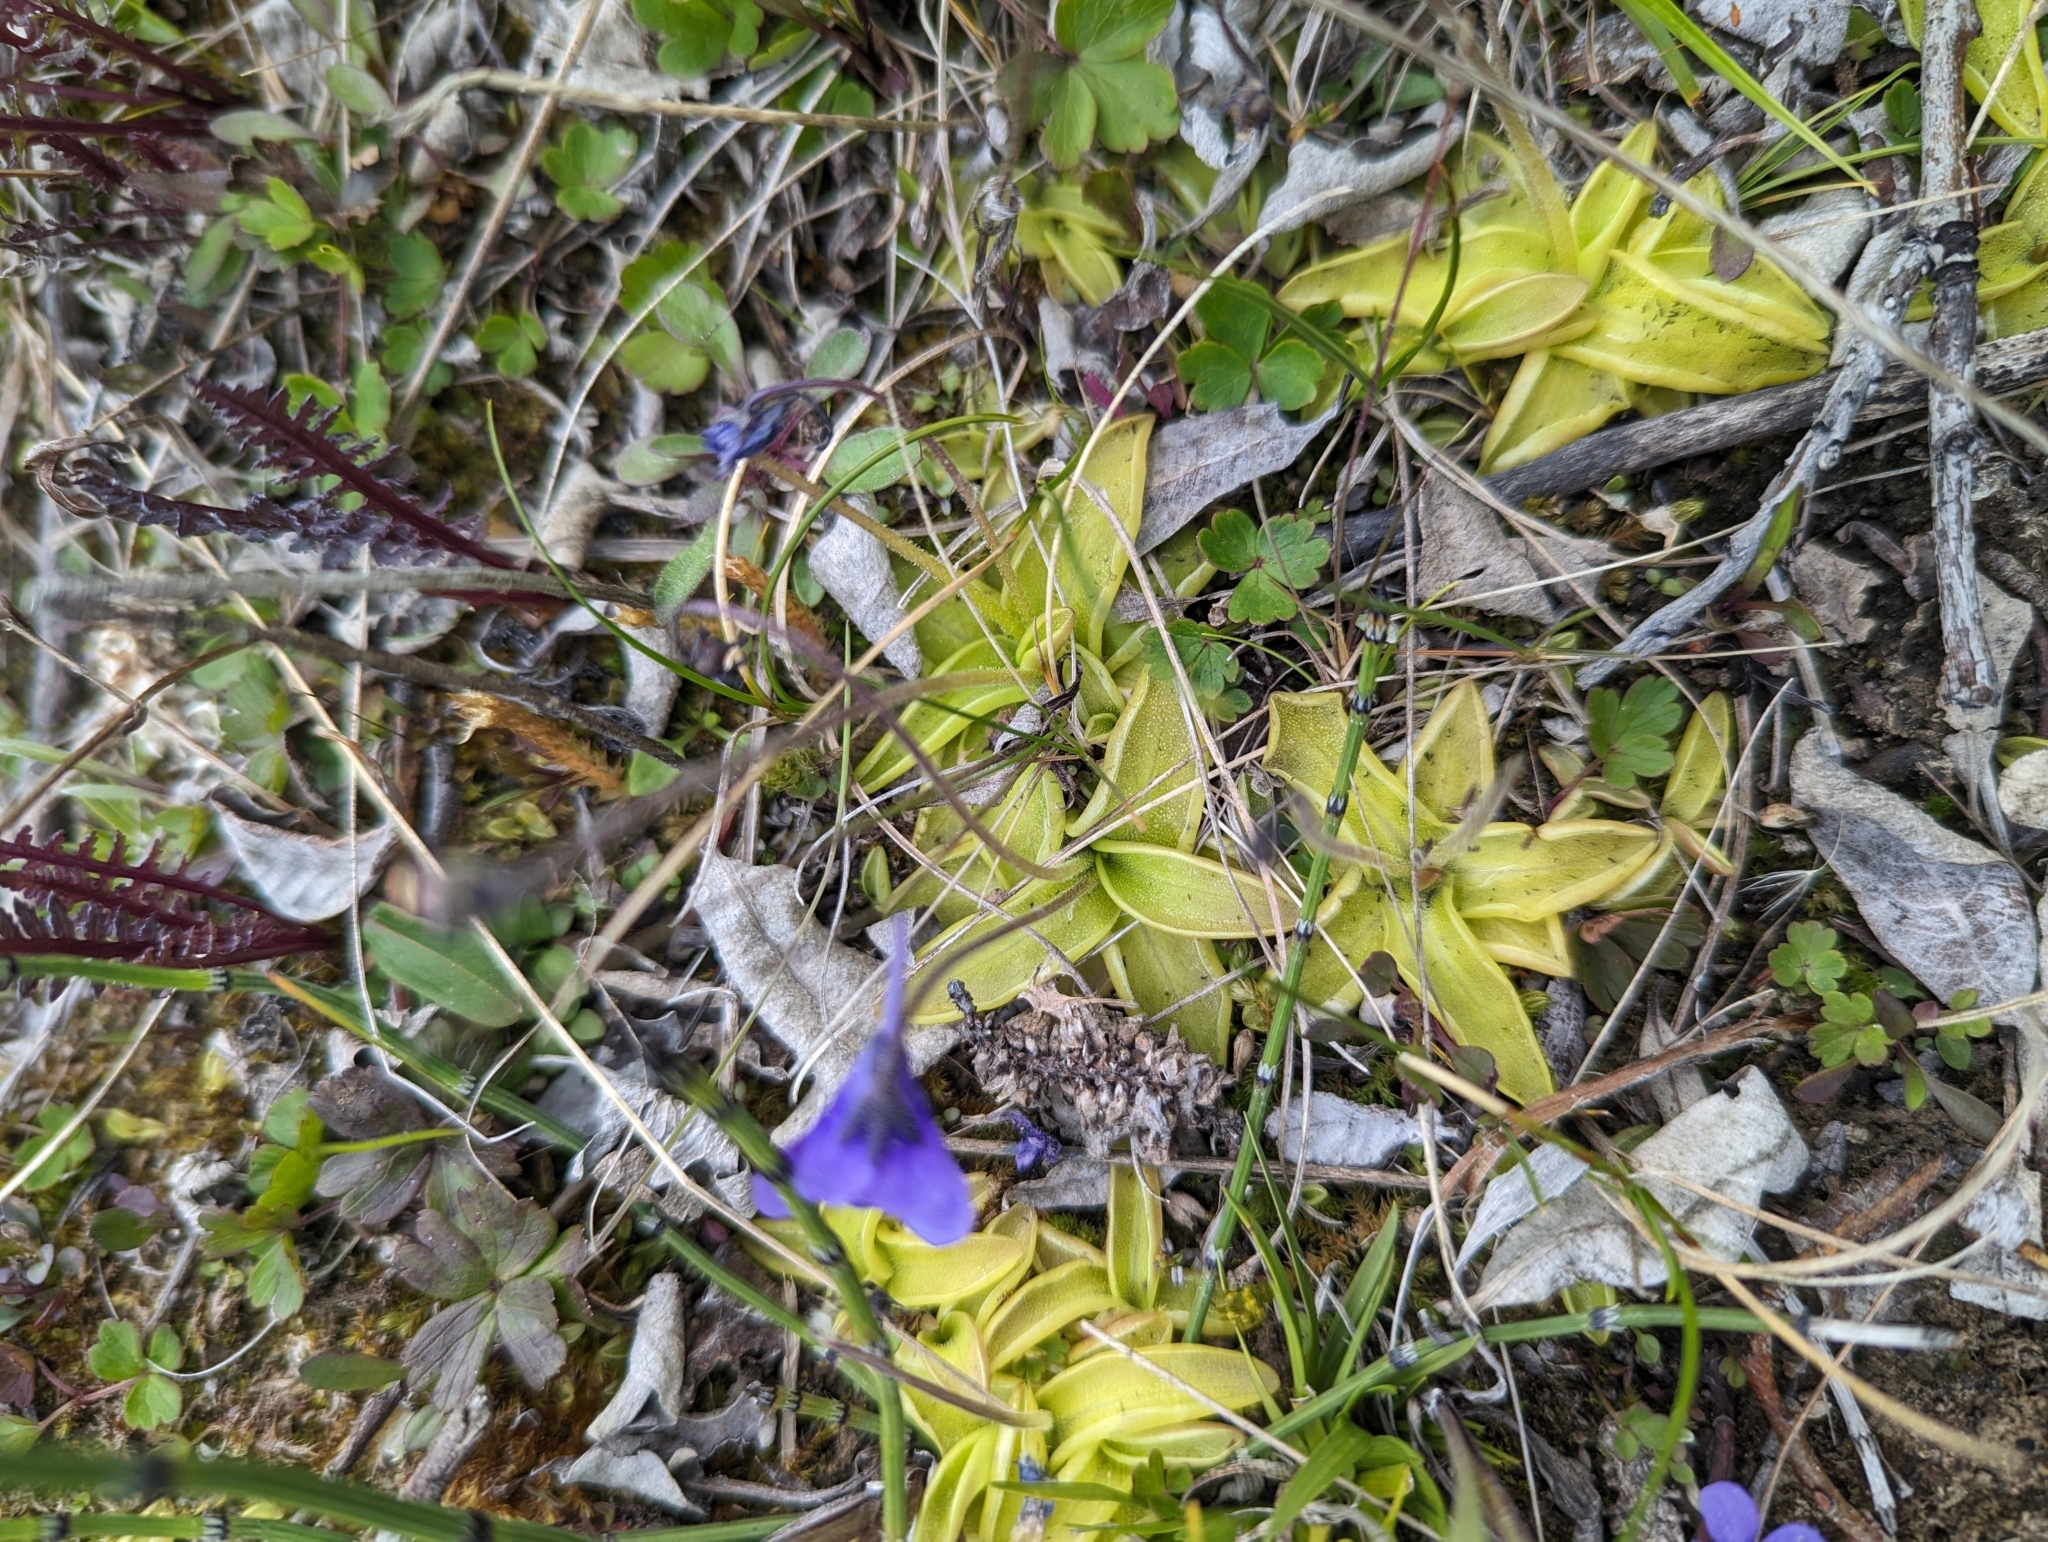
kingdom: Plantae
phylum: Tracheophyta
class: Magnoliopsida
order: Lamiales
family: Lentibulariaceae
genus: Pinguicula
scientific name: Pinguicula vulgaris
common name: Common butterwort
